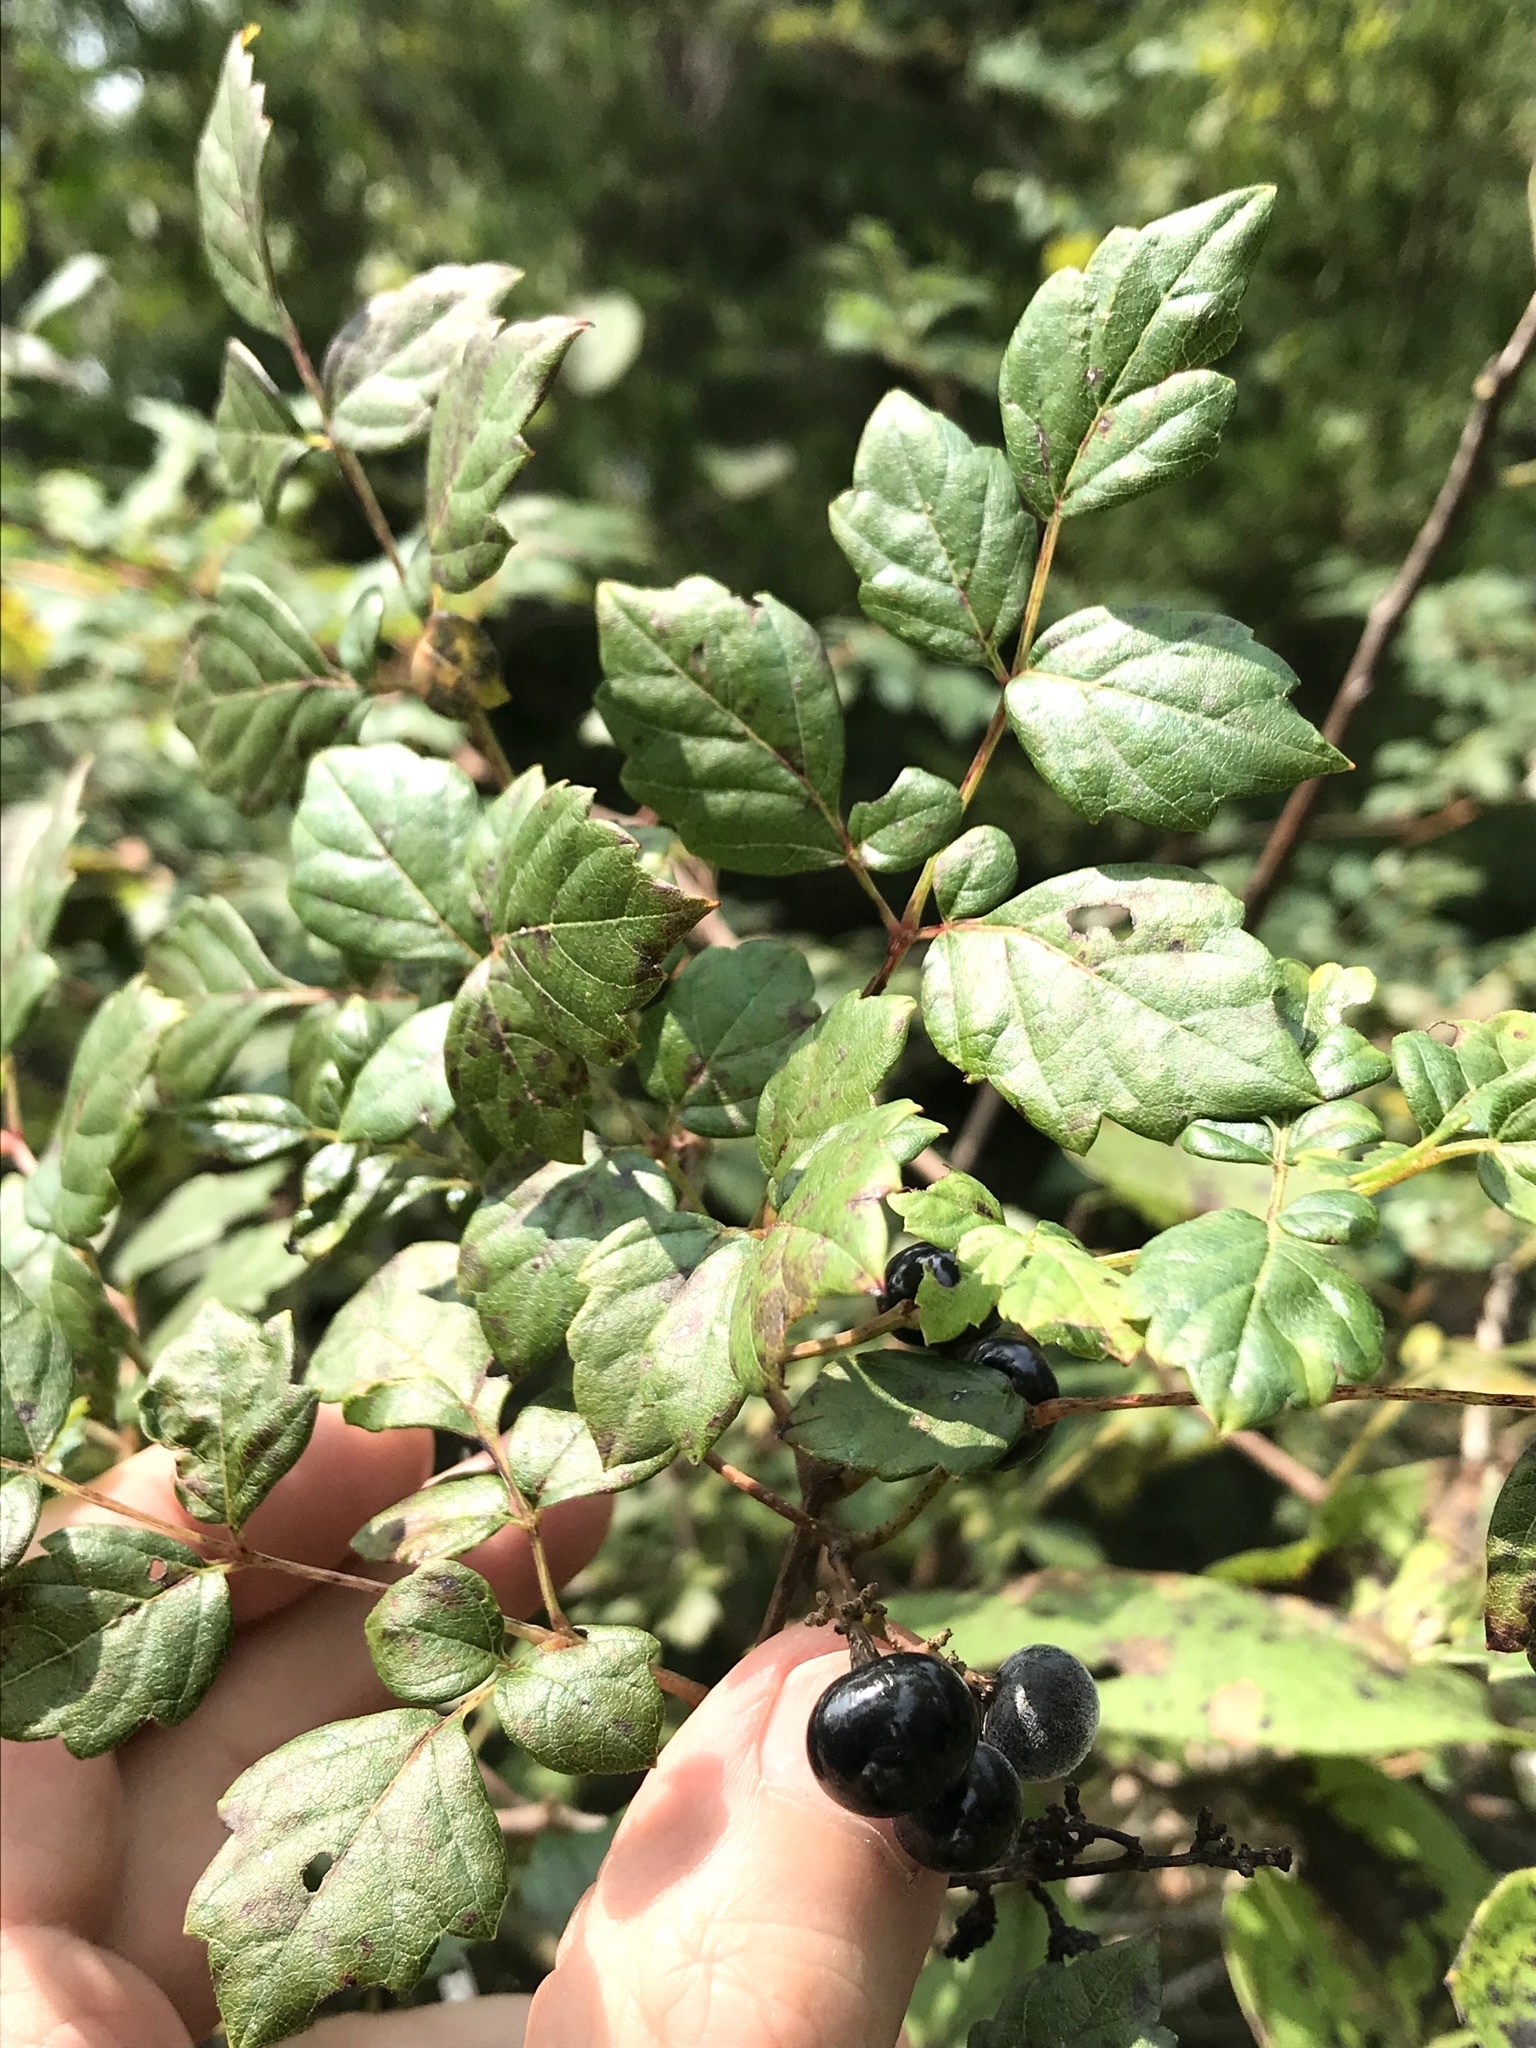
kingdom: Plantae
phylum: Tracheophyta
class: Magnoliopsida
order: Vitales
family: Vitaceae
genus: Nekemias
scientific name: Nekemias arborea
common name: Peppervine
